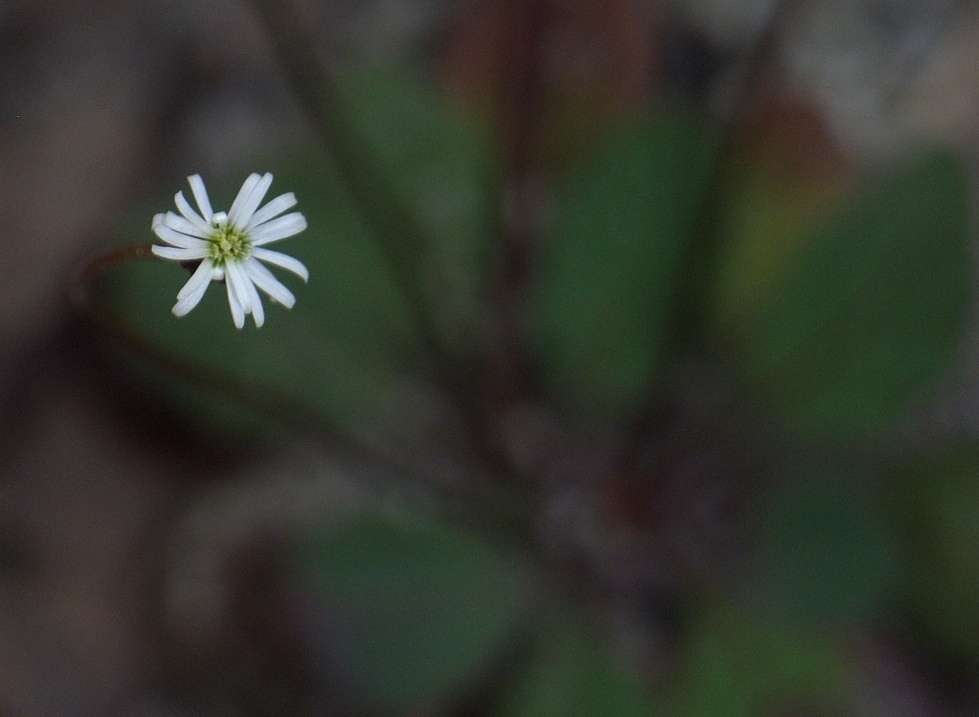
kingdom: Plantae
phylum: Tracheophyta
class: Magnoliopsida
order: Asterales
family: Asteraceae
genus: Lagenophora
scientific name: Lagenophora sublyrata ter
